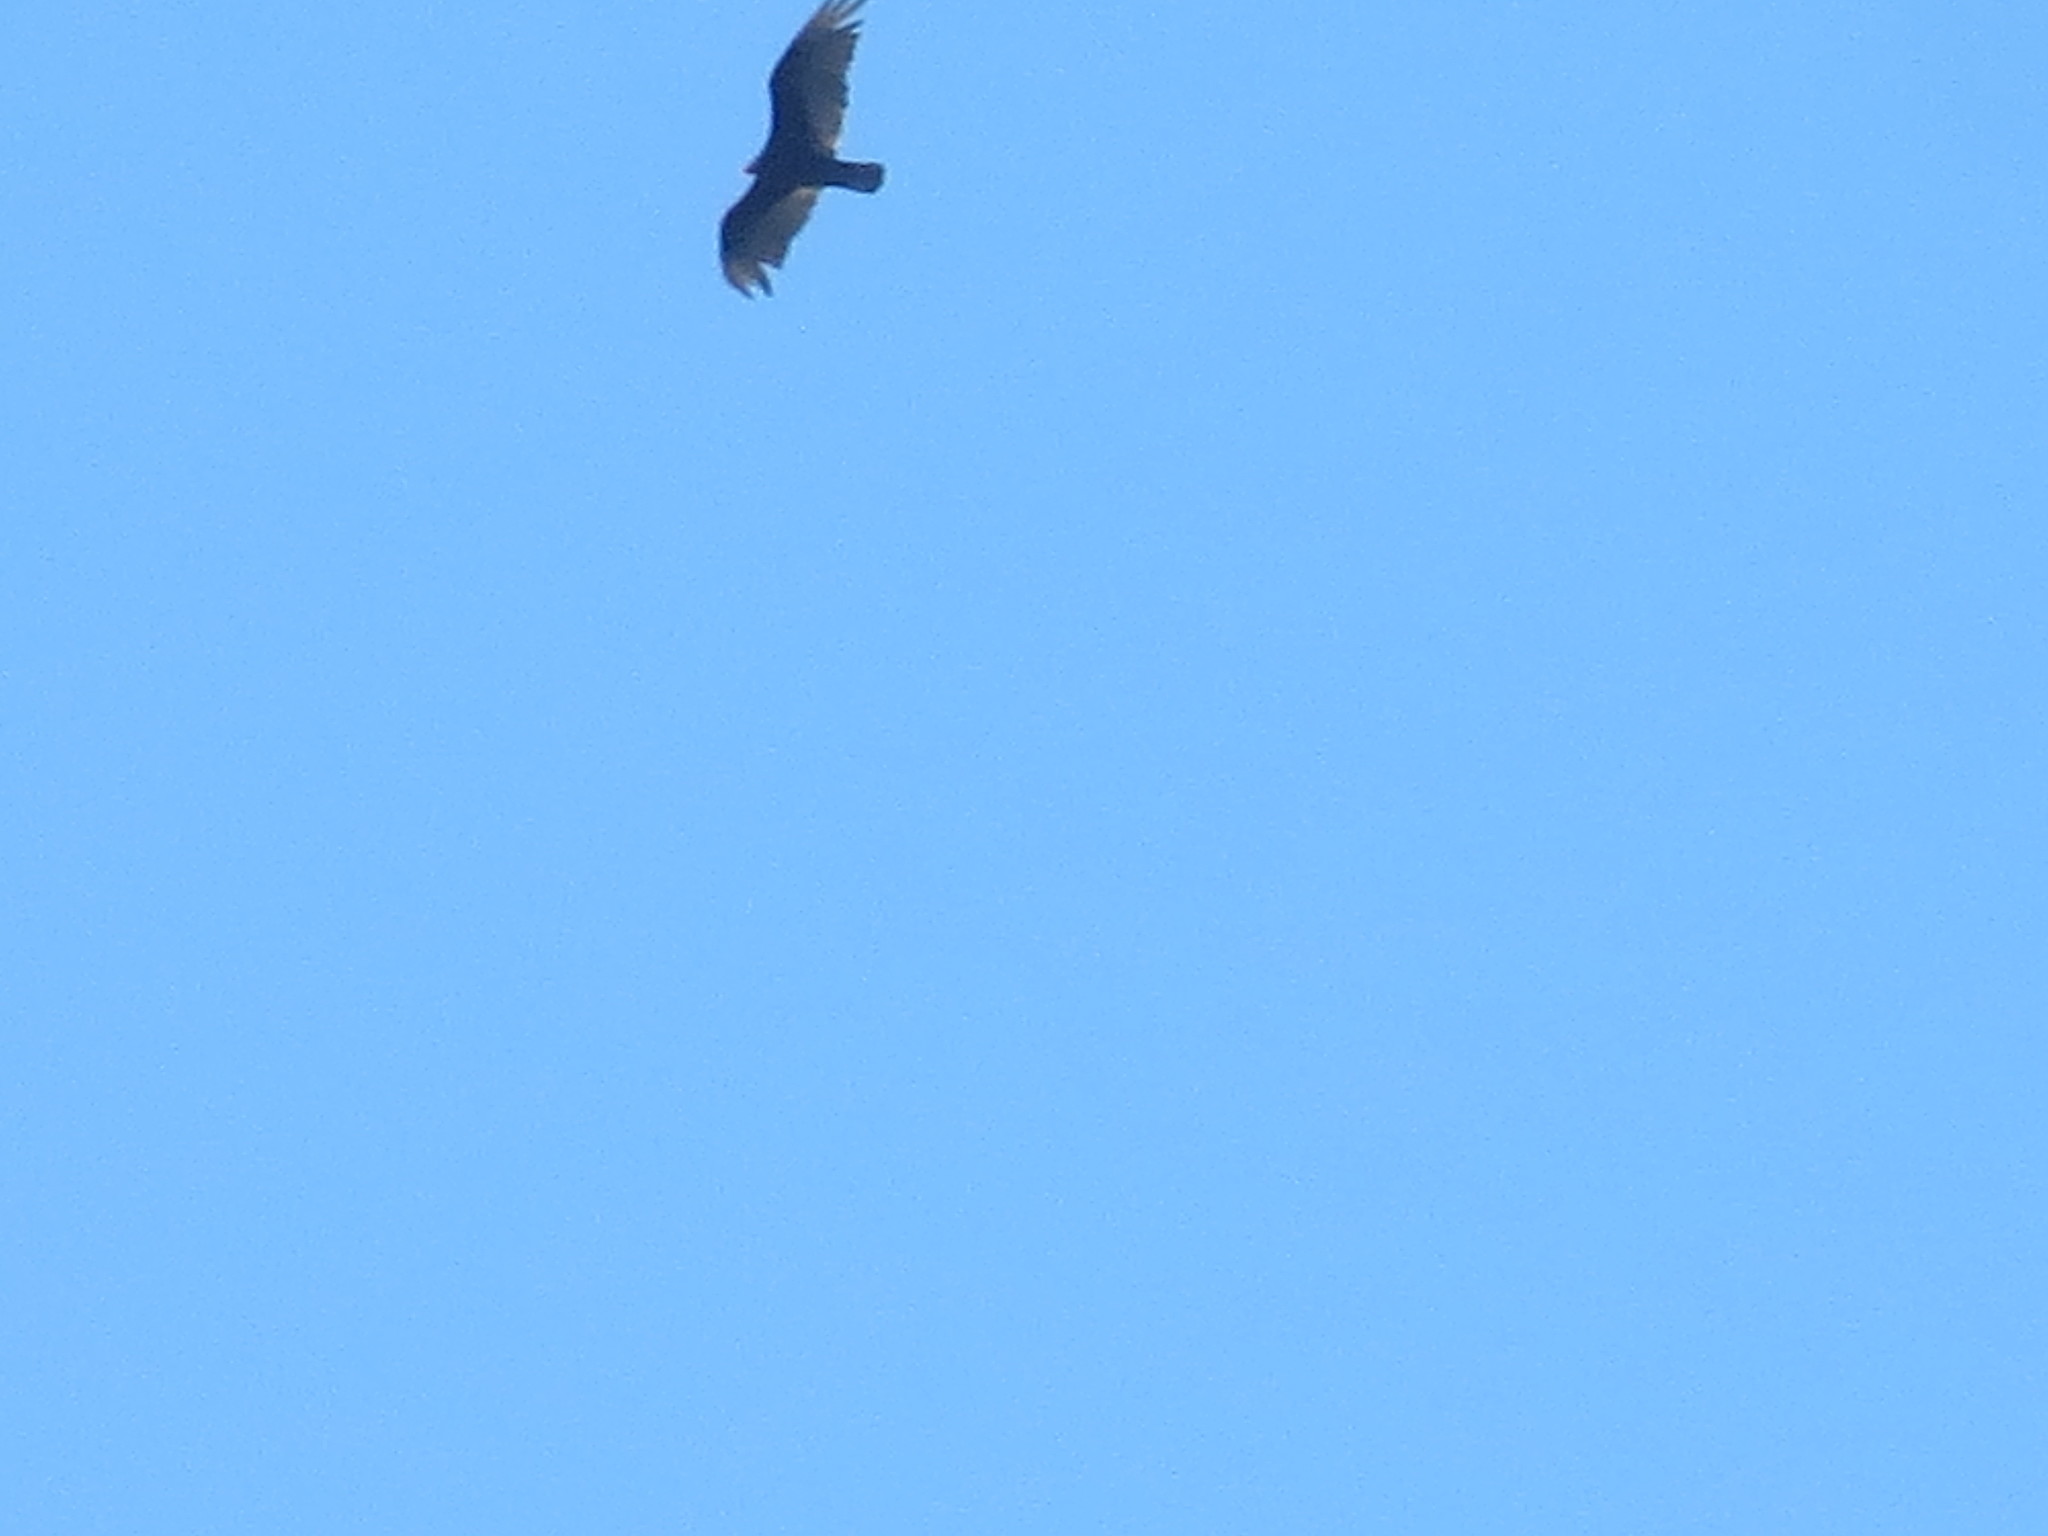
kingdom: Animalia
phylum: Chordata
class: Aves
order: Accipitriformes
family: Cathartidae
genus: Cathartes
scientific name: Cathartes aura
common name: Turkey vulture
